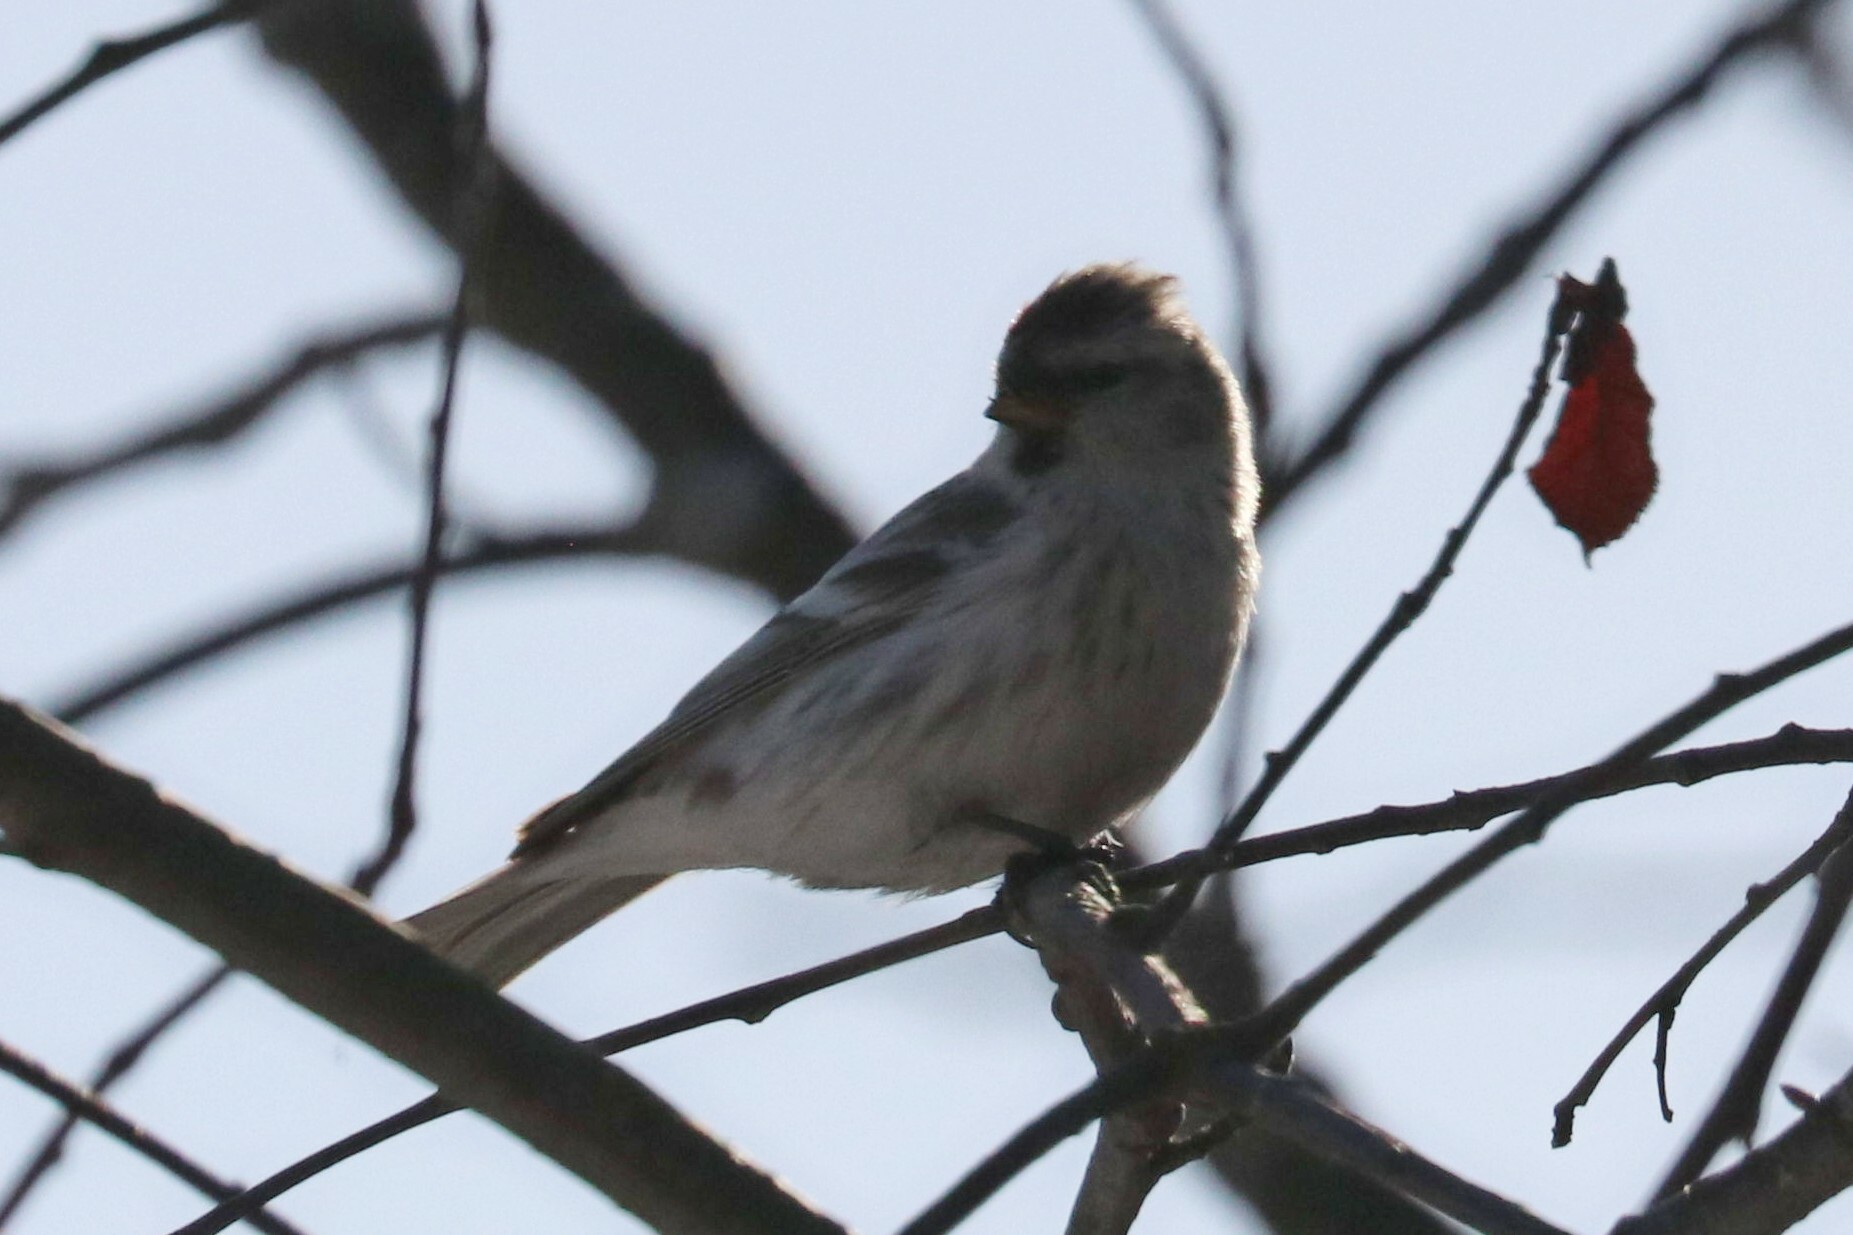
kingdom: Animalia
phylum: Chordata
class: Aves
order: Passeriformes
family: Fringillidae
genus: Acanthis
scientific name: Acanthis flammea
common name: Common redpoll
